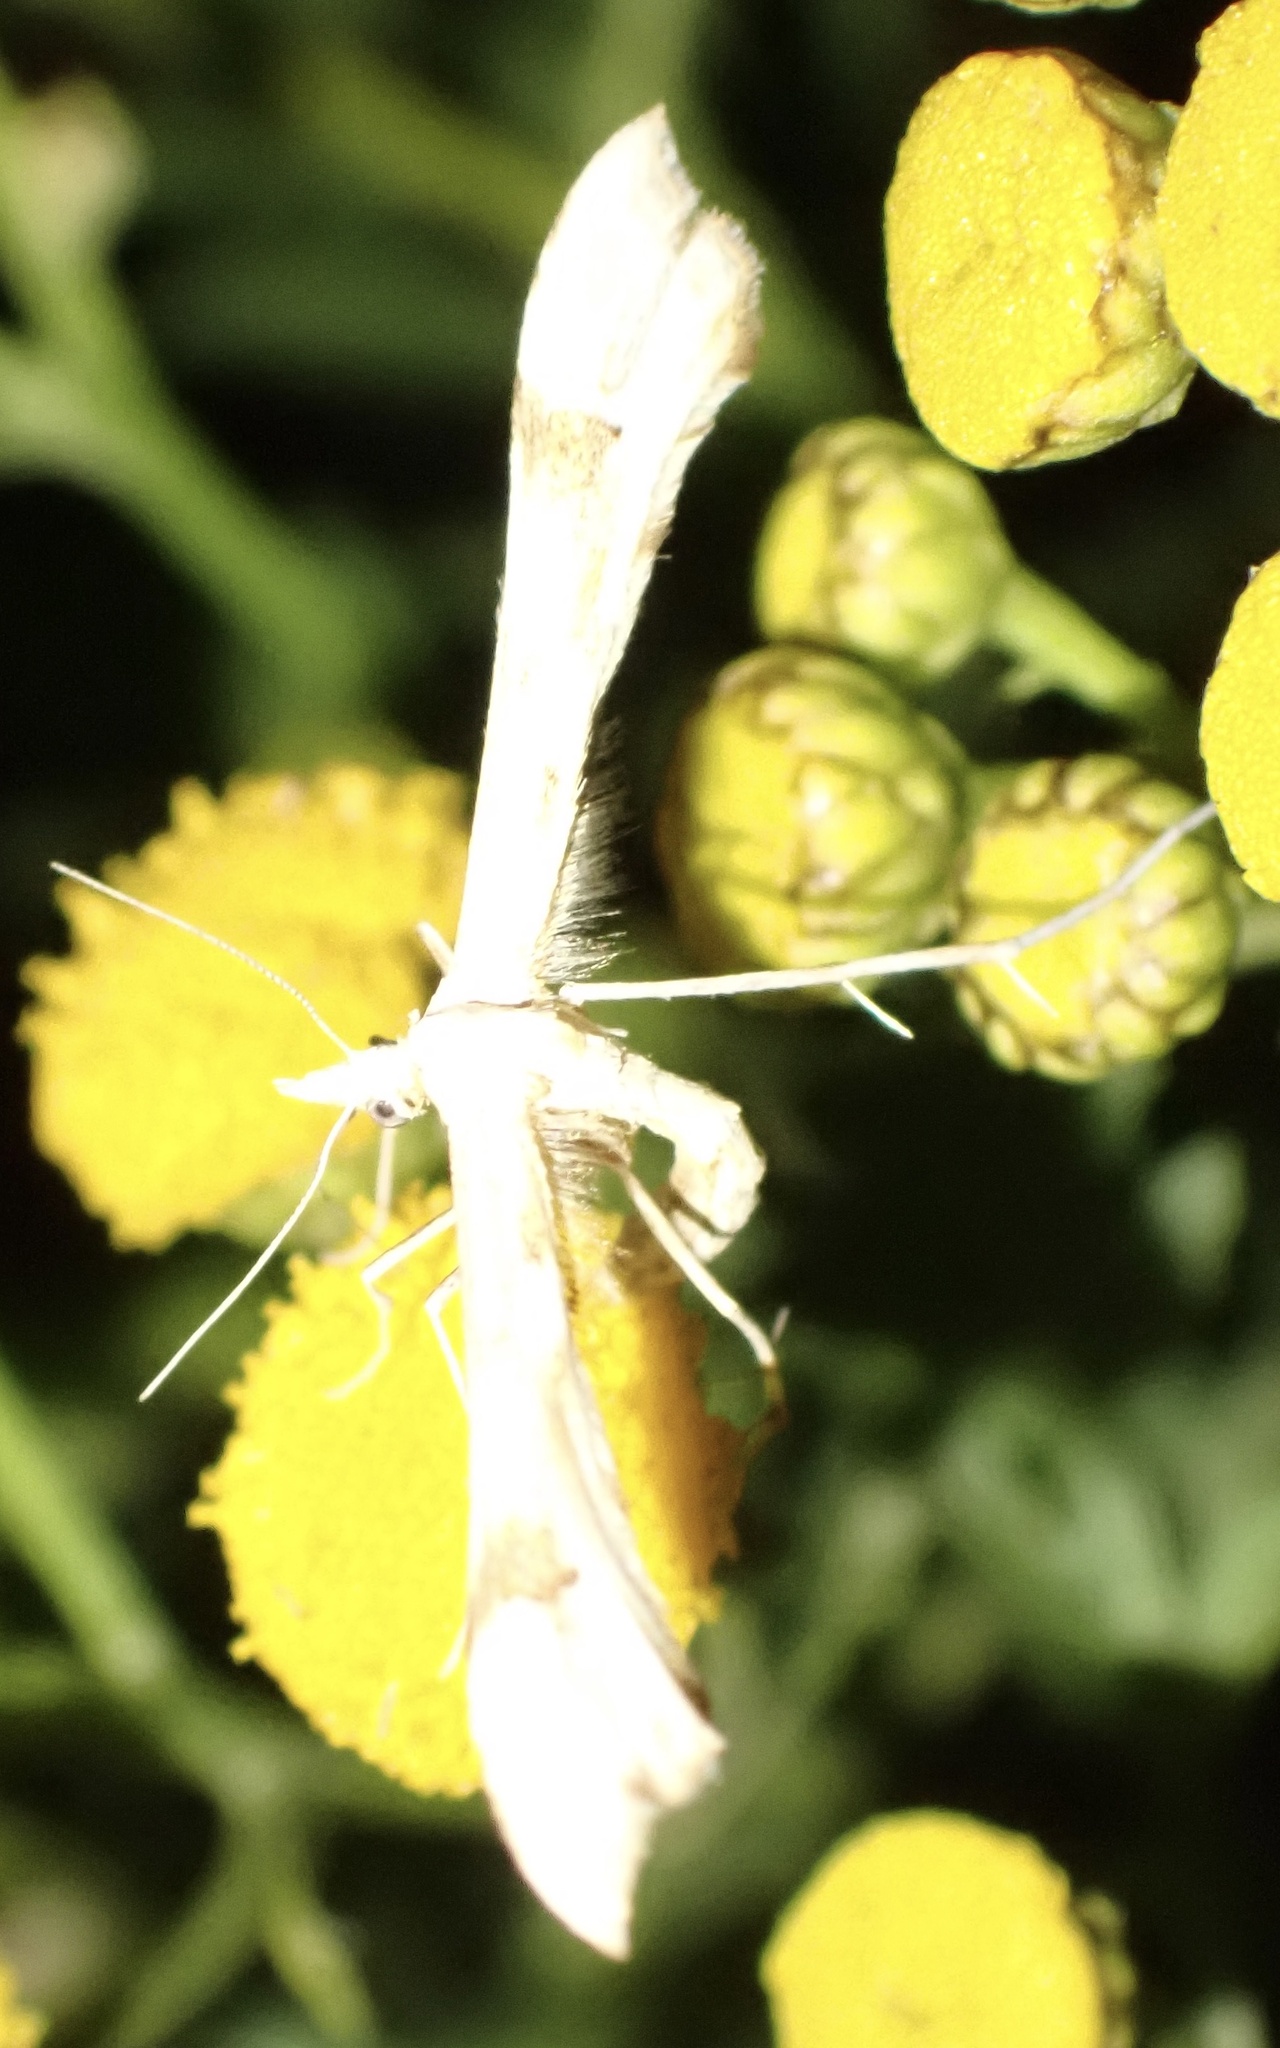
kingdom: Animalia
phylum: Arthropoda
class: Insecta
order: Lepidoptera
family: Pterophoridae
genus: Gillmeria
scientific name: Gillmeria ochrodactyla
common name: Tansy plume
